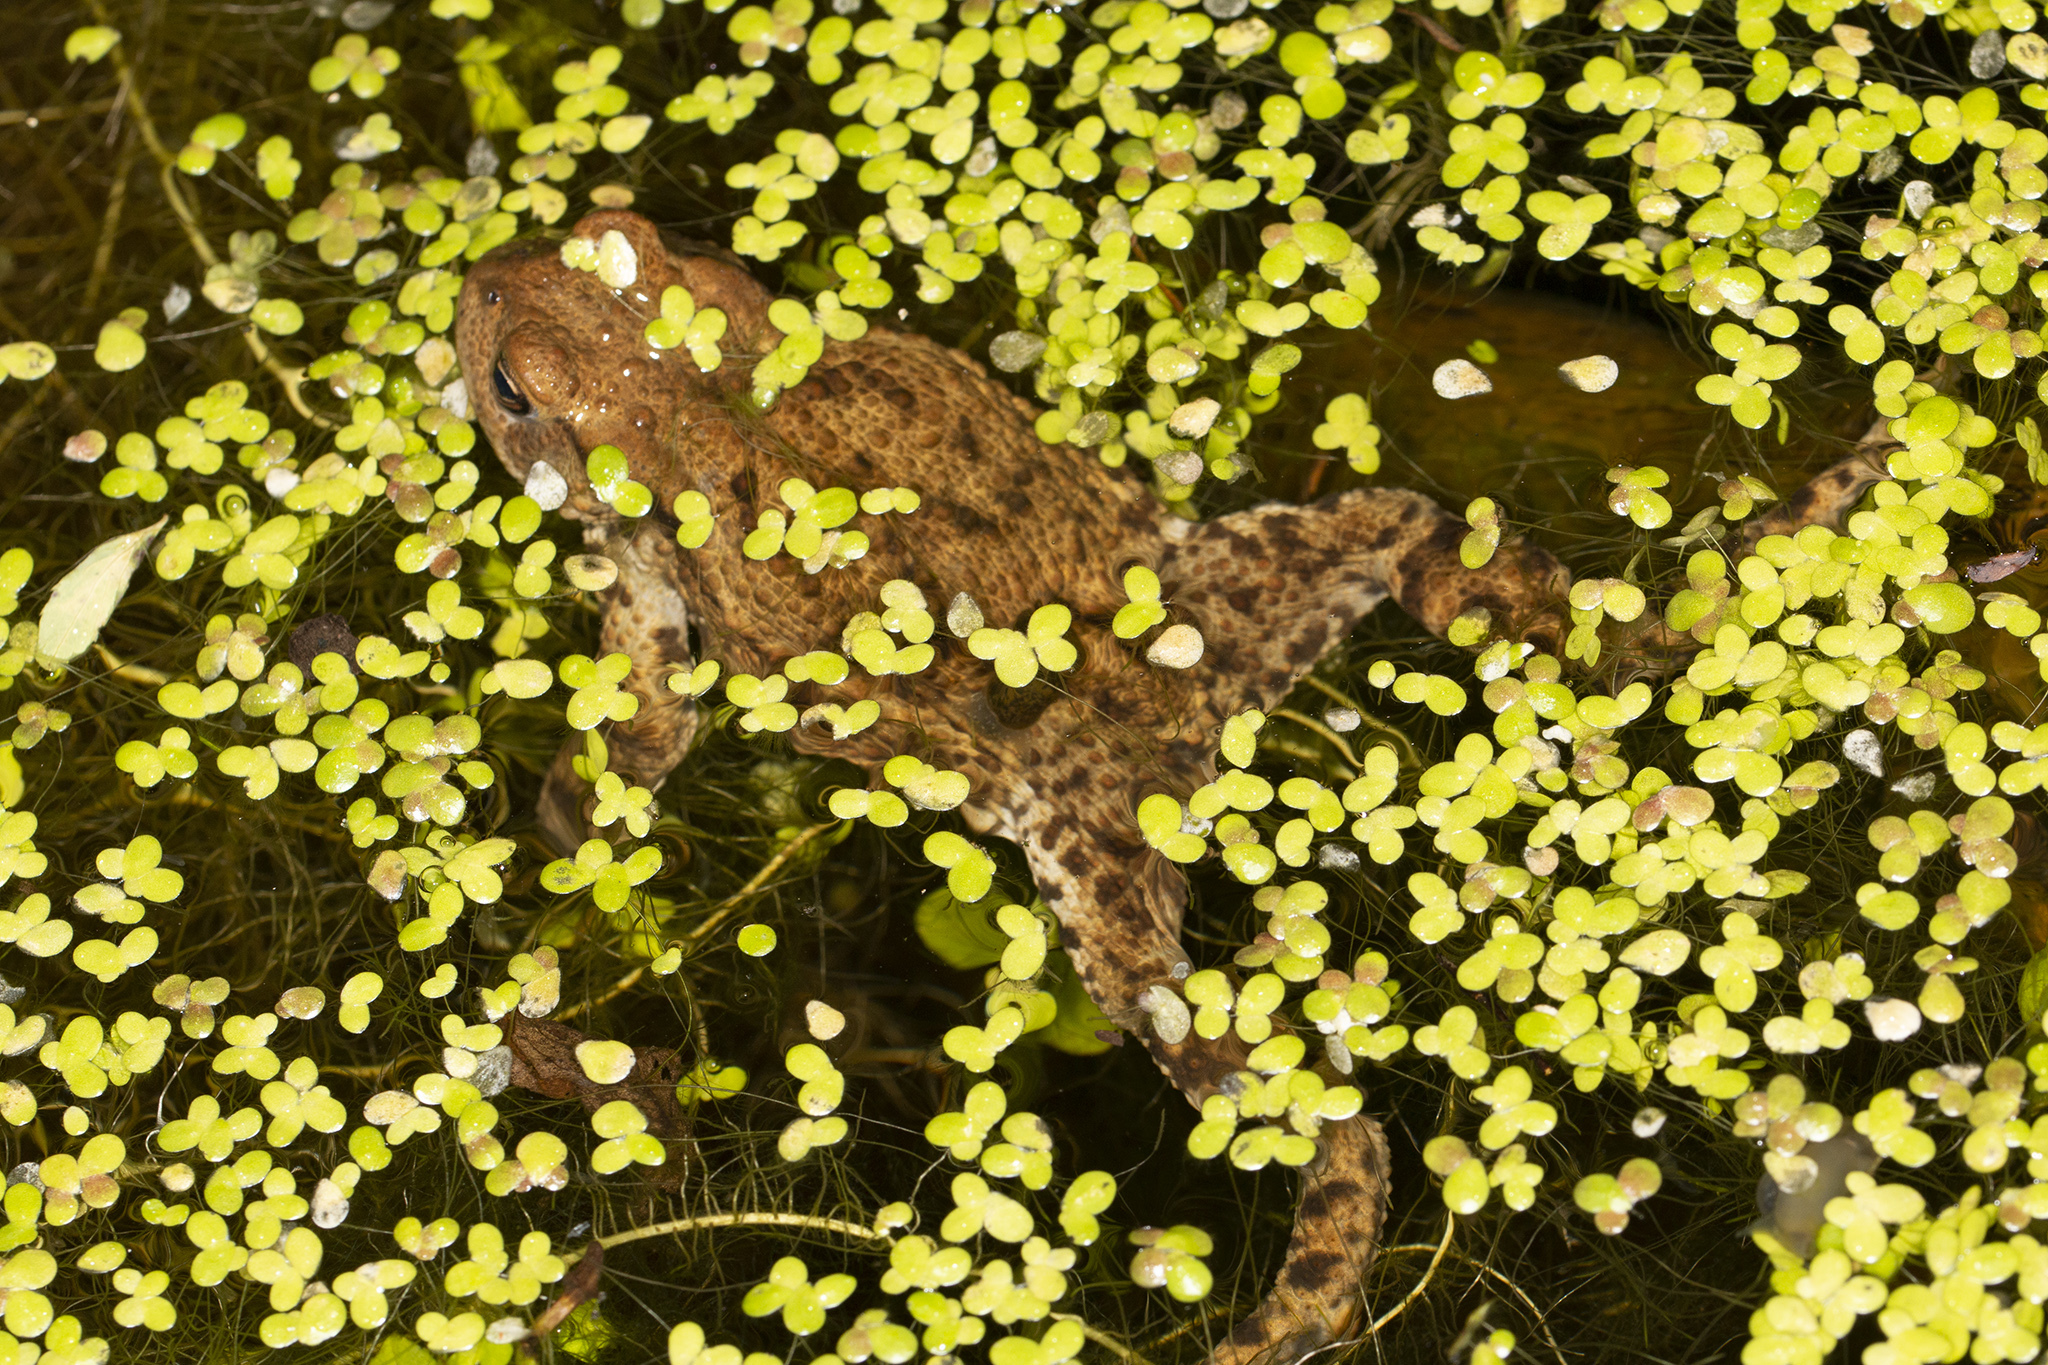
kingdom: Animalia
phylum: Chordata
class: Amphibia
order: Anura
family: Bufonidae
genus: Bufo
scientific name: Bufo bufo
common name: Common toad
